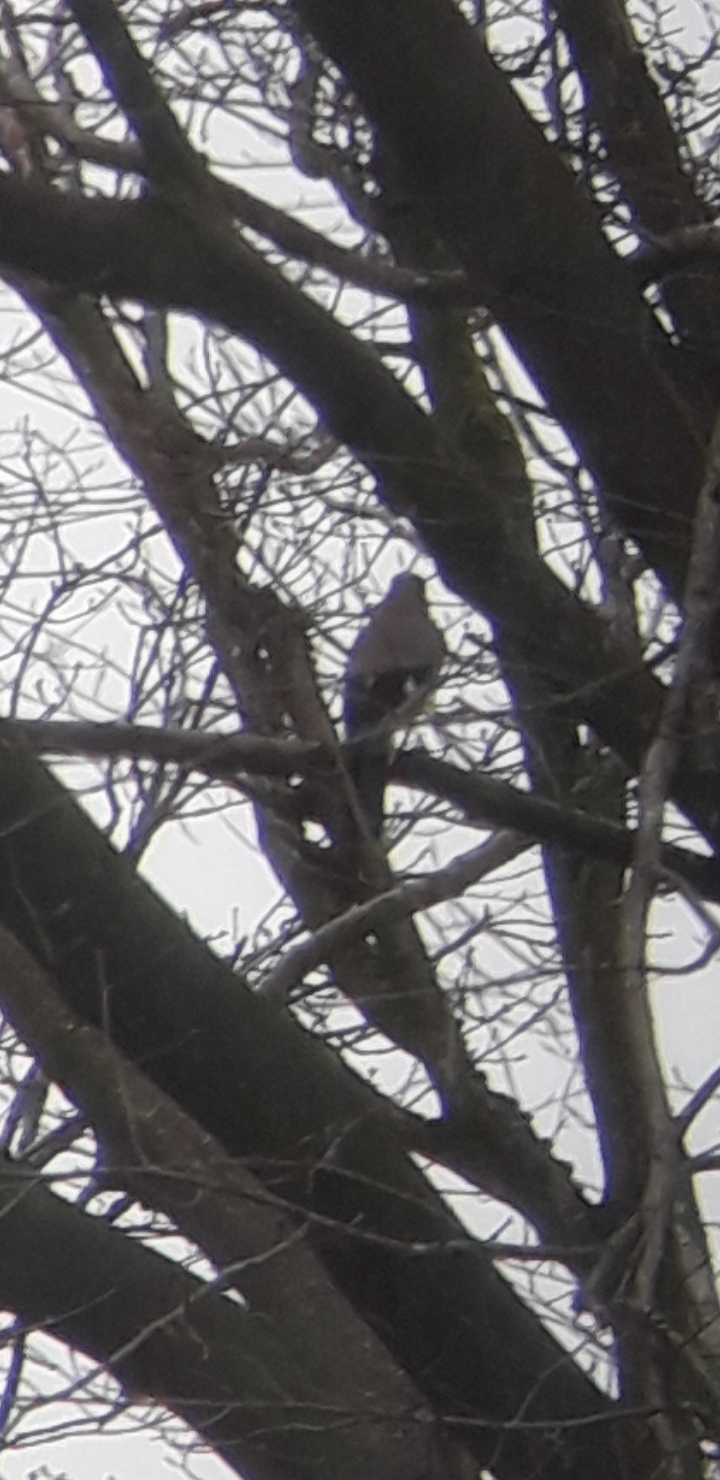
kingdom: Animalia
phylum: Chordata
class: Aves
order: Passeriformes
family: Corvidae
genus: Garrulus
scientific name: Garrulus glandarius
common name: Eurasian jay
